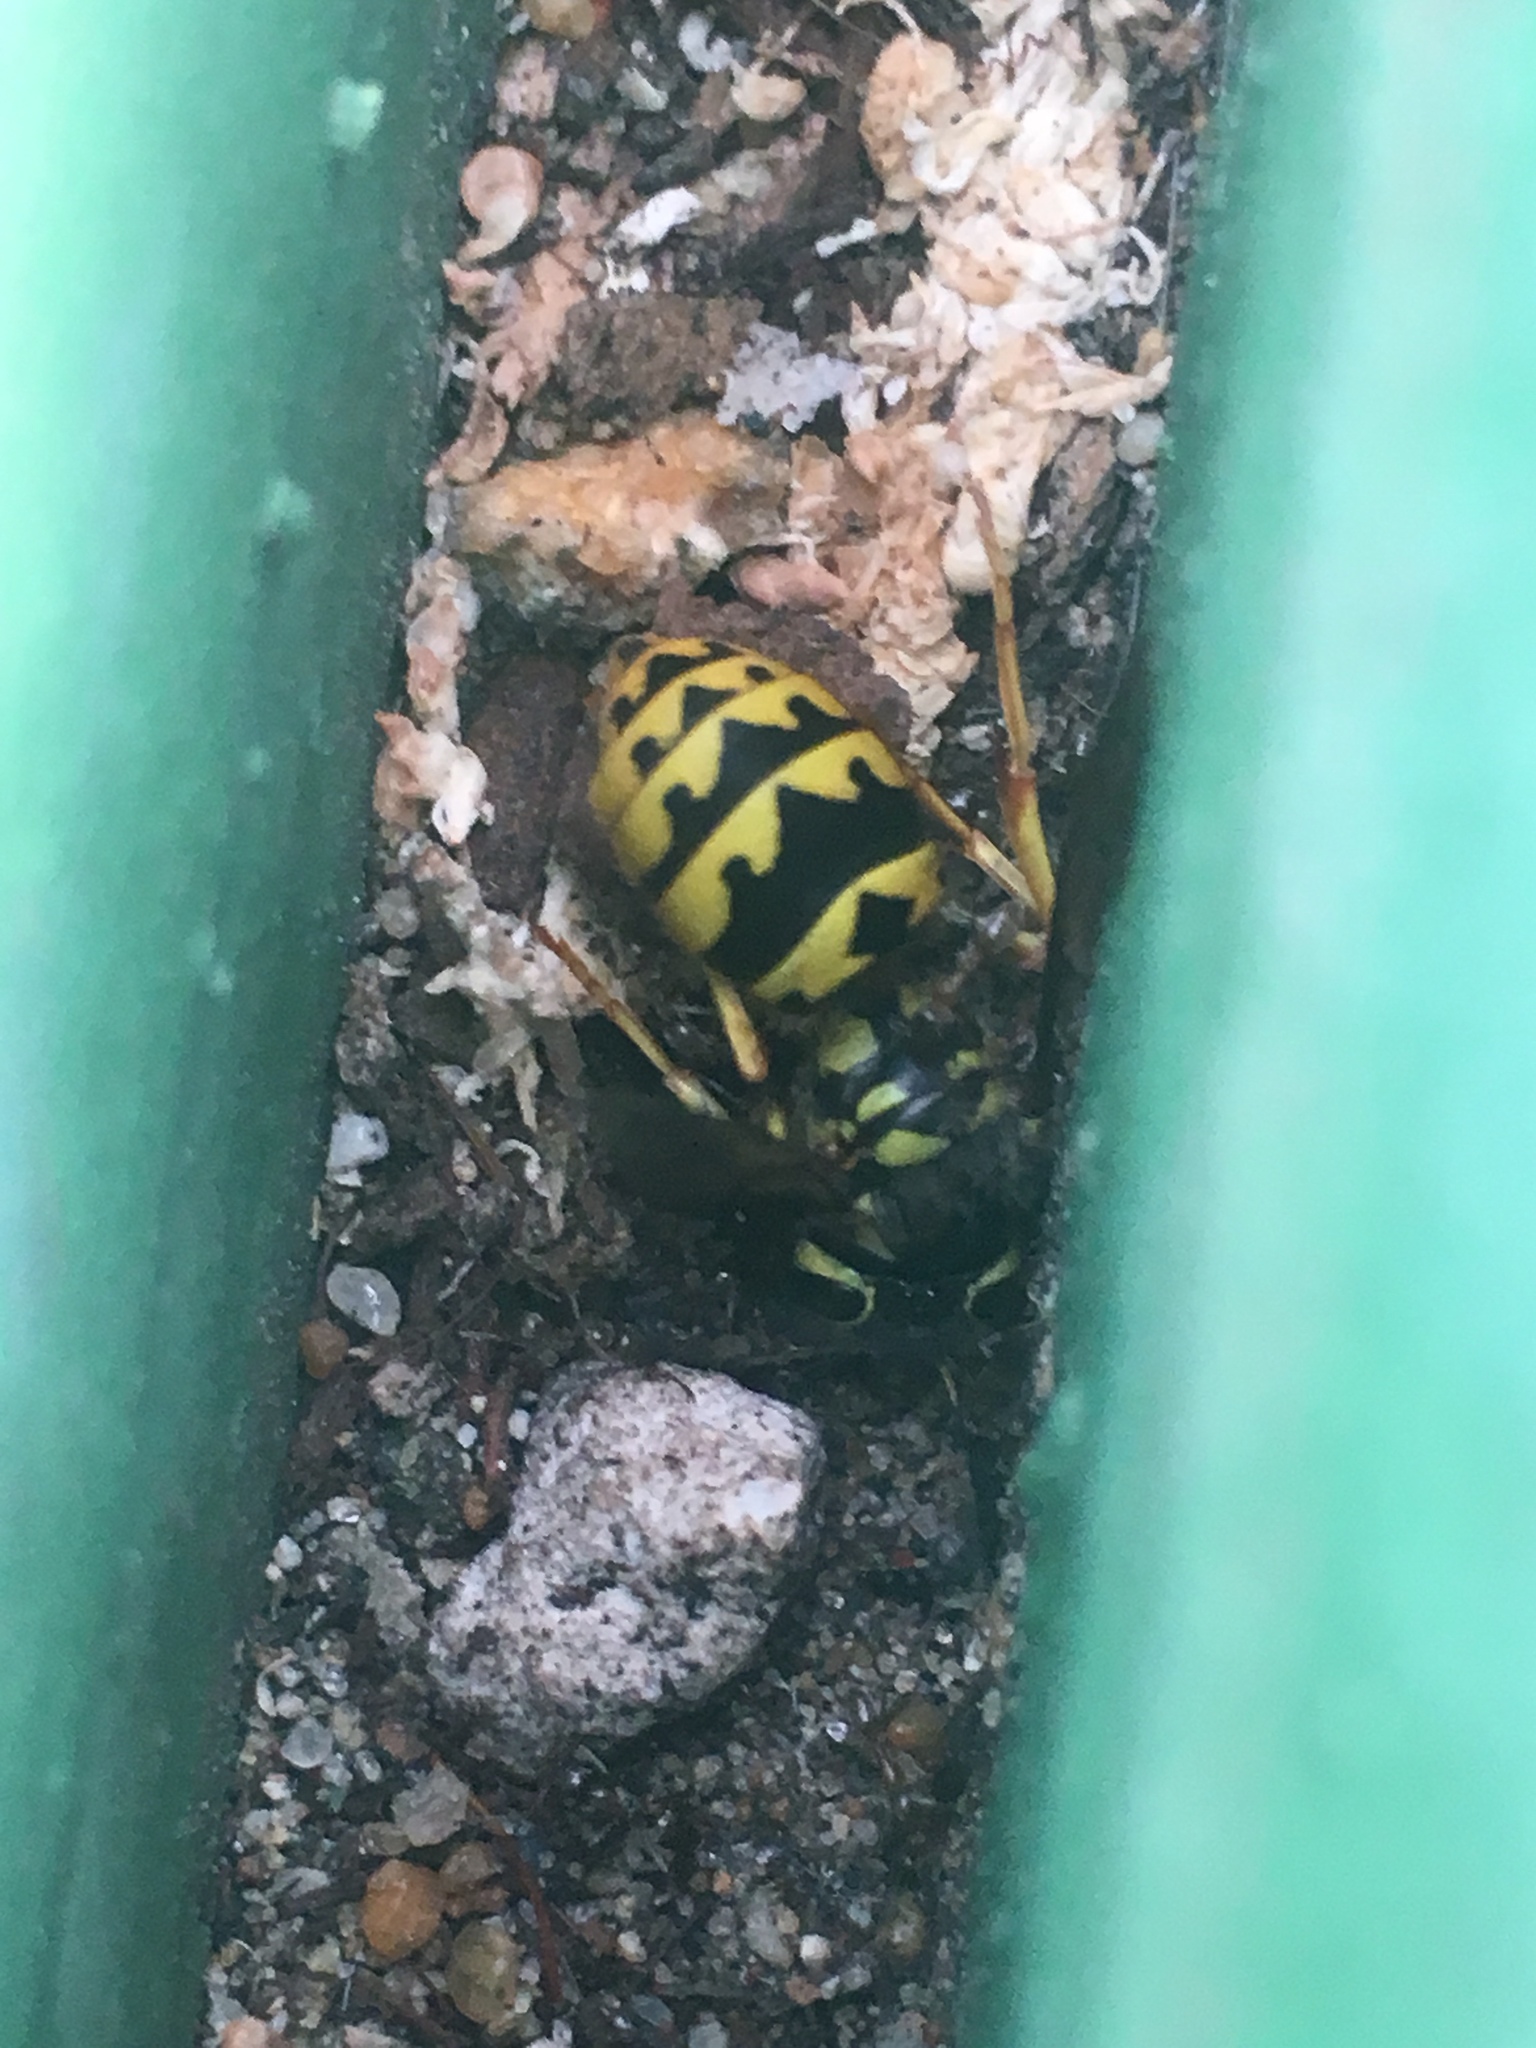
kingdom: Animalia
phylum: Arthropoda
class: Insecta
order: Hymenoptera
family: Vespidae
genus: Vespula
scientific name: Vespula pensylvanica
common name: Western yellowjacket
